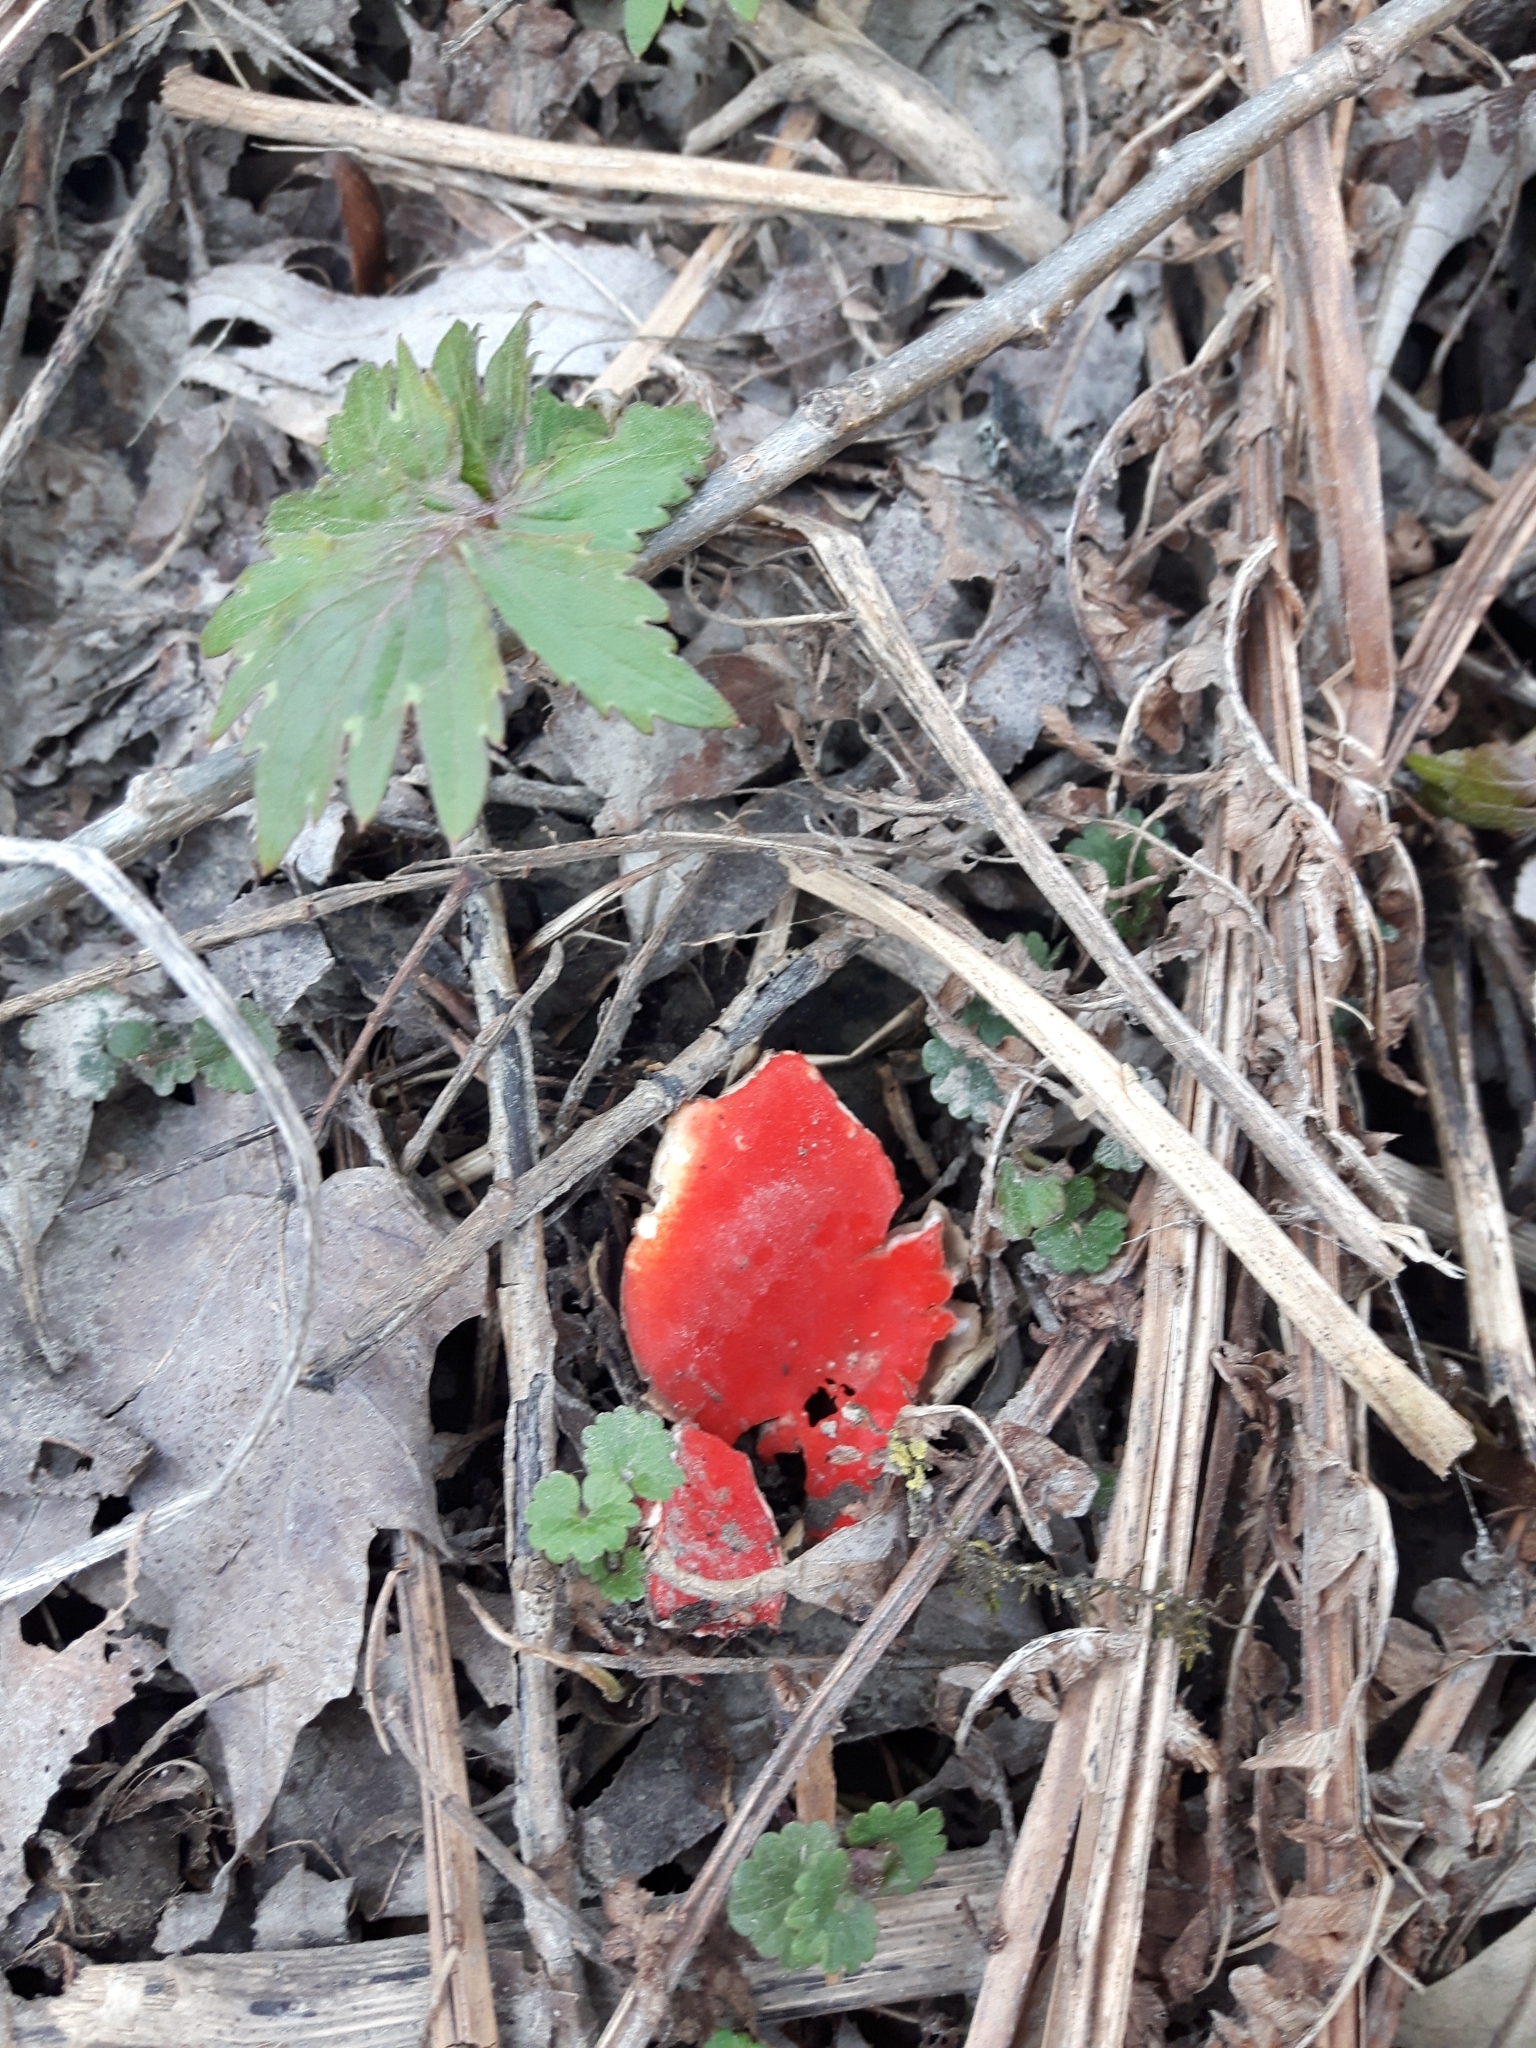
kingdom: Fungi
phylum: Ascomycota
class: Pezizomycetes
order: Pezizales
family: Sarcoscyphaceae
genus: Sarcoscypha
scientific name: Sarcoscypha
